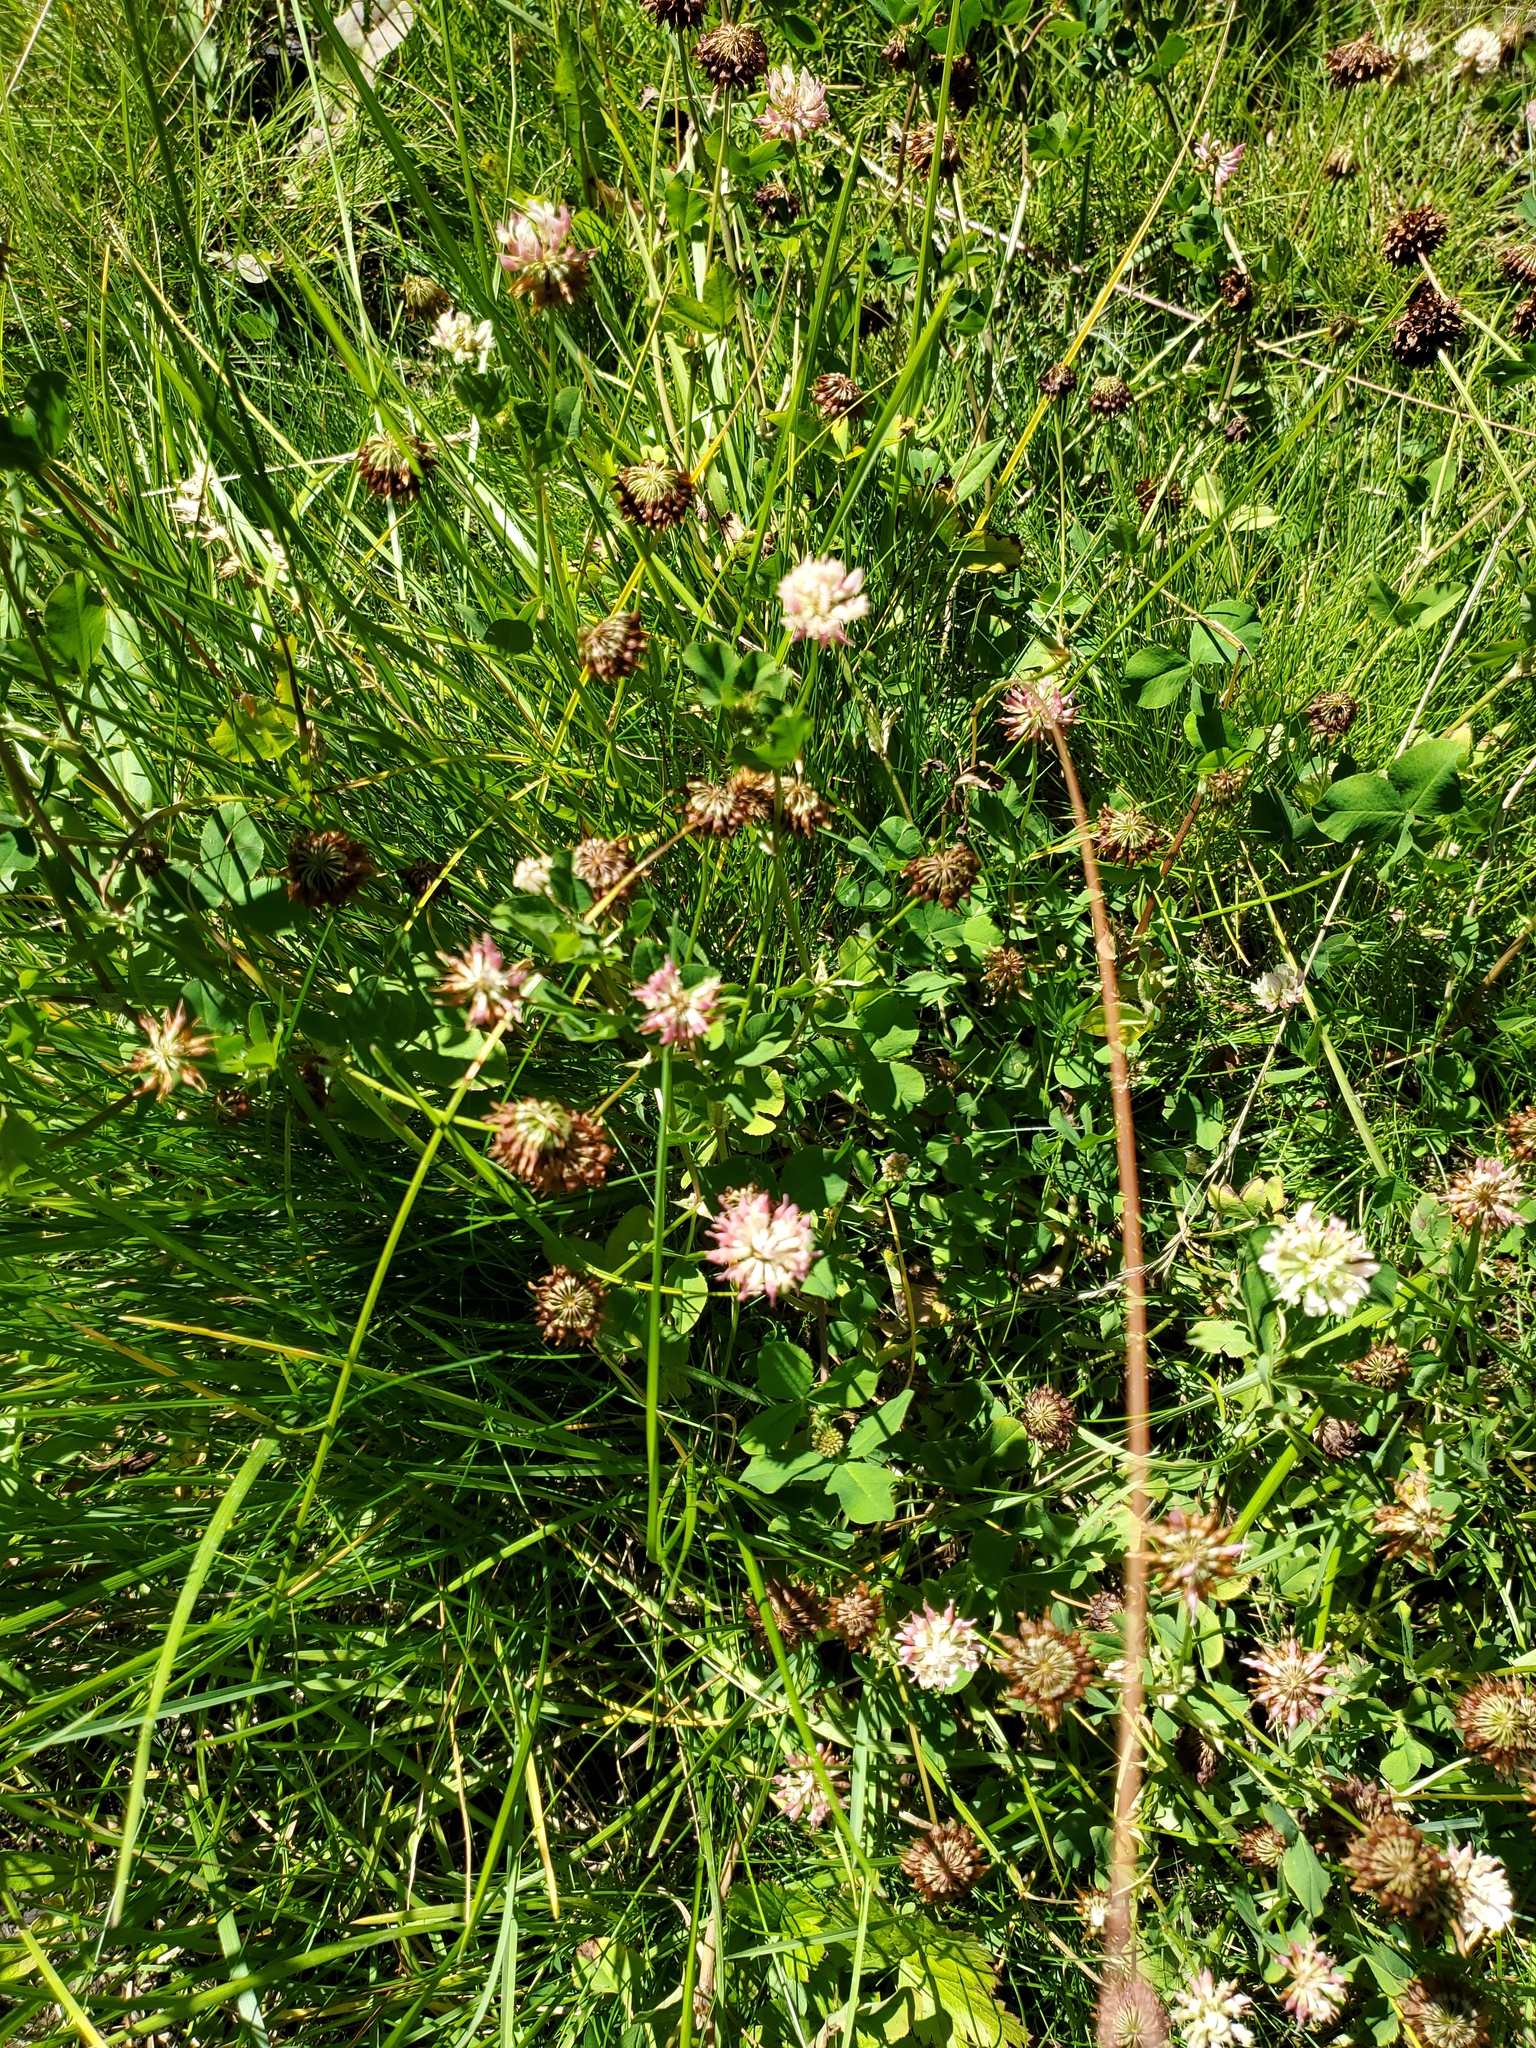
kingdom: Plantae
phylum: Tracheophyta
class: Magnoliopsida
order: Fabales
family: Fabaceae
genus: Trifolium
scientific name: Trifolium hybridum
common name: Alsike clover
